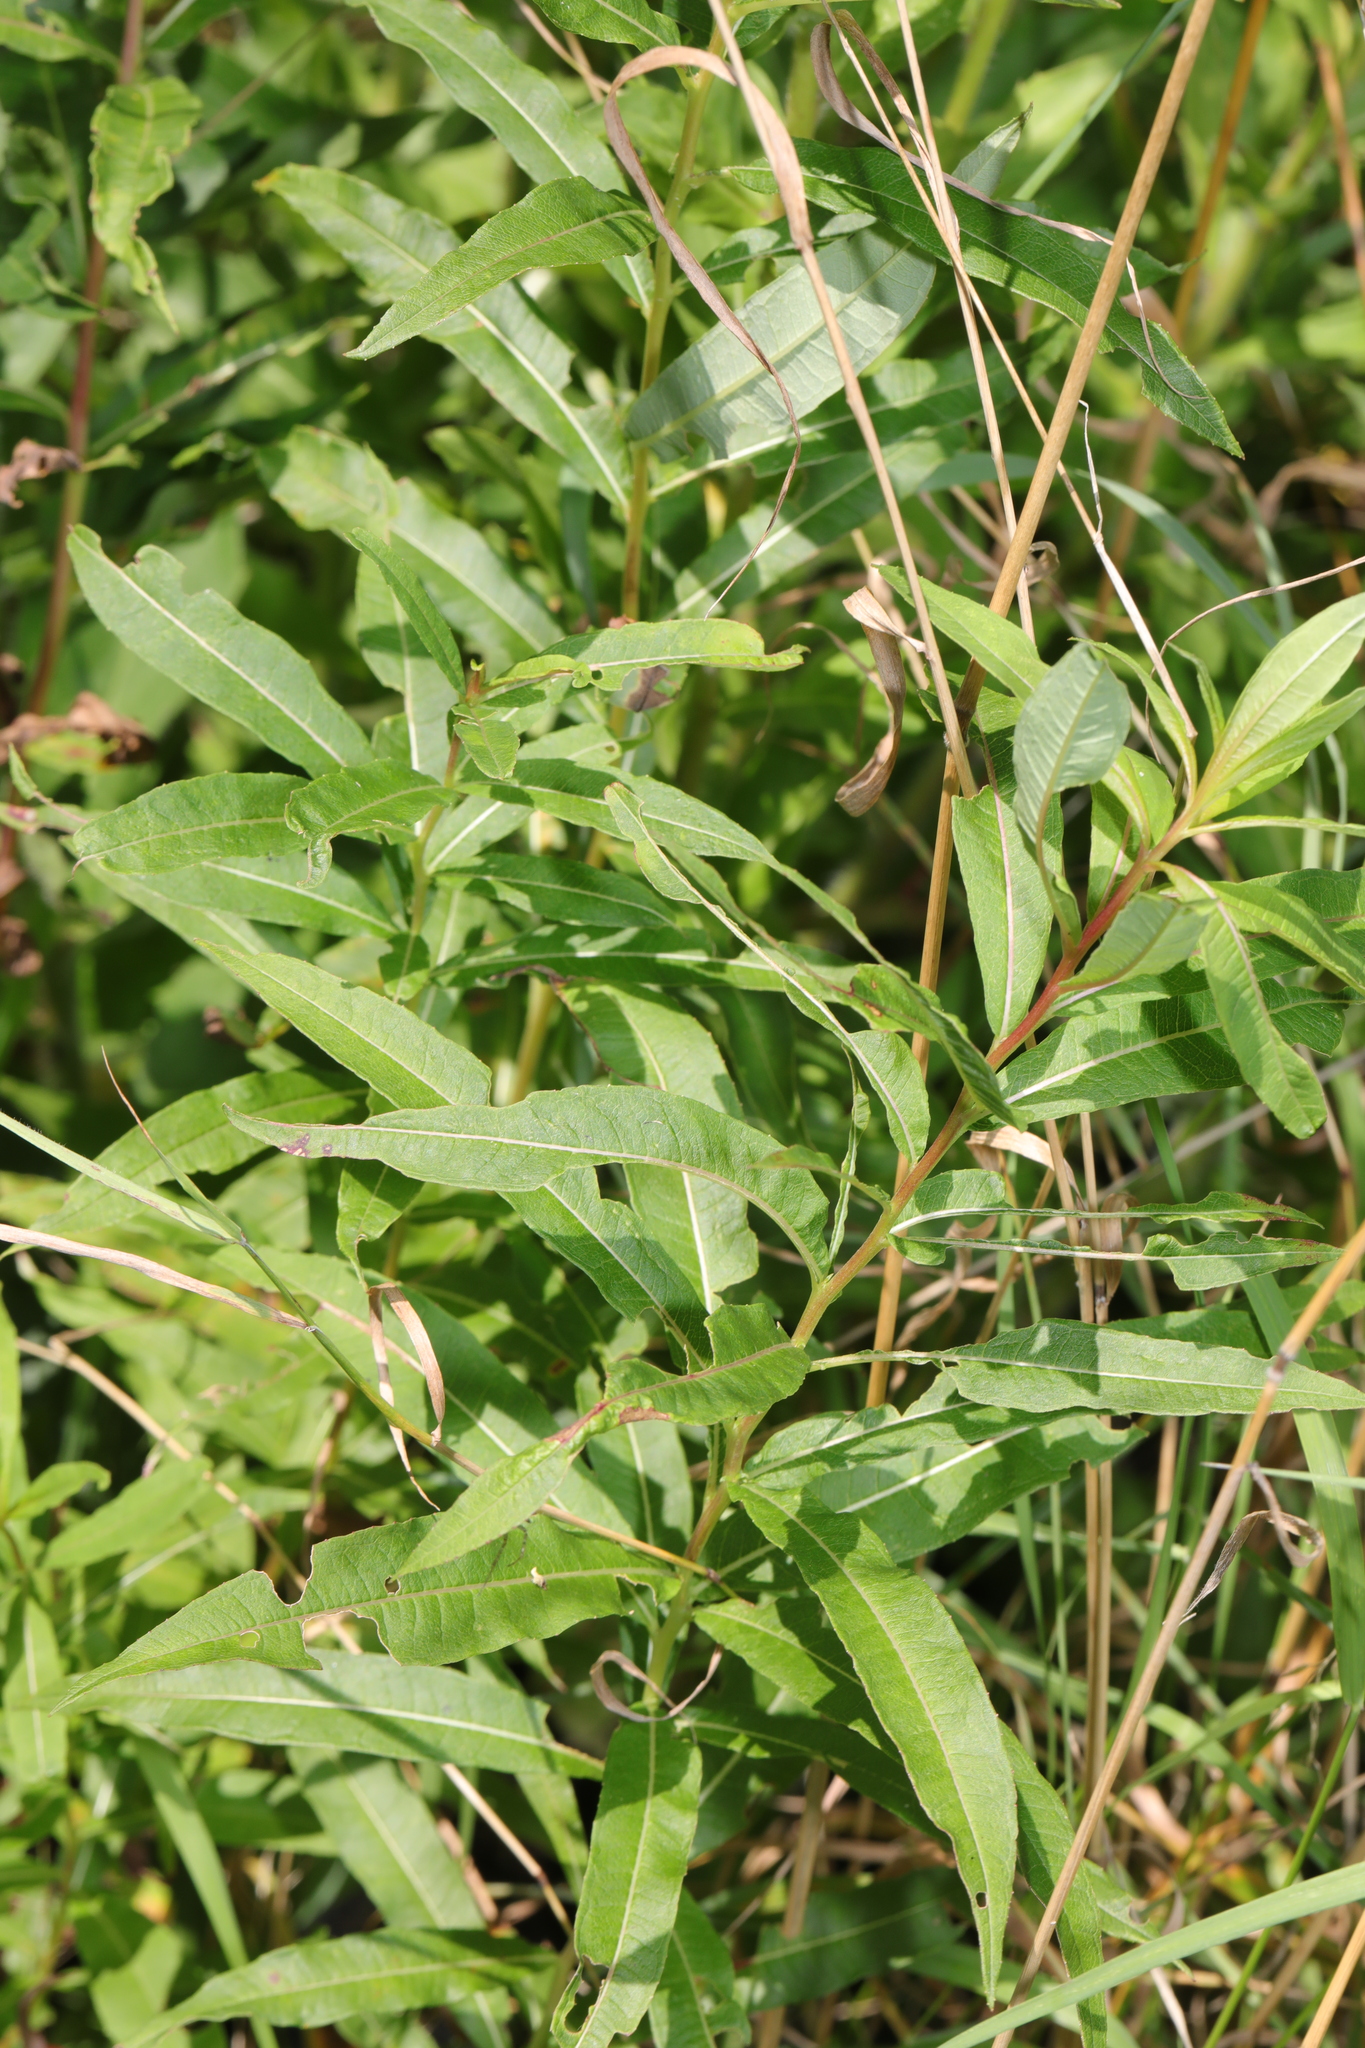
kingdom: Plantae
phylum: Tracheophyta
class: Magnoliopsida
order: Myrtales
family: Onagraceae
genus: Chamaenerion
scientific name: Chamaenerion angustifolium
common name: Fireweed
